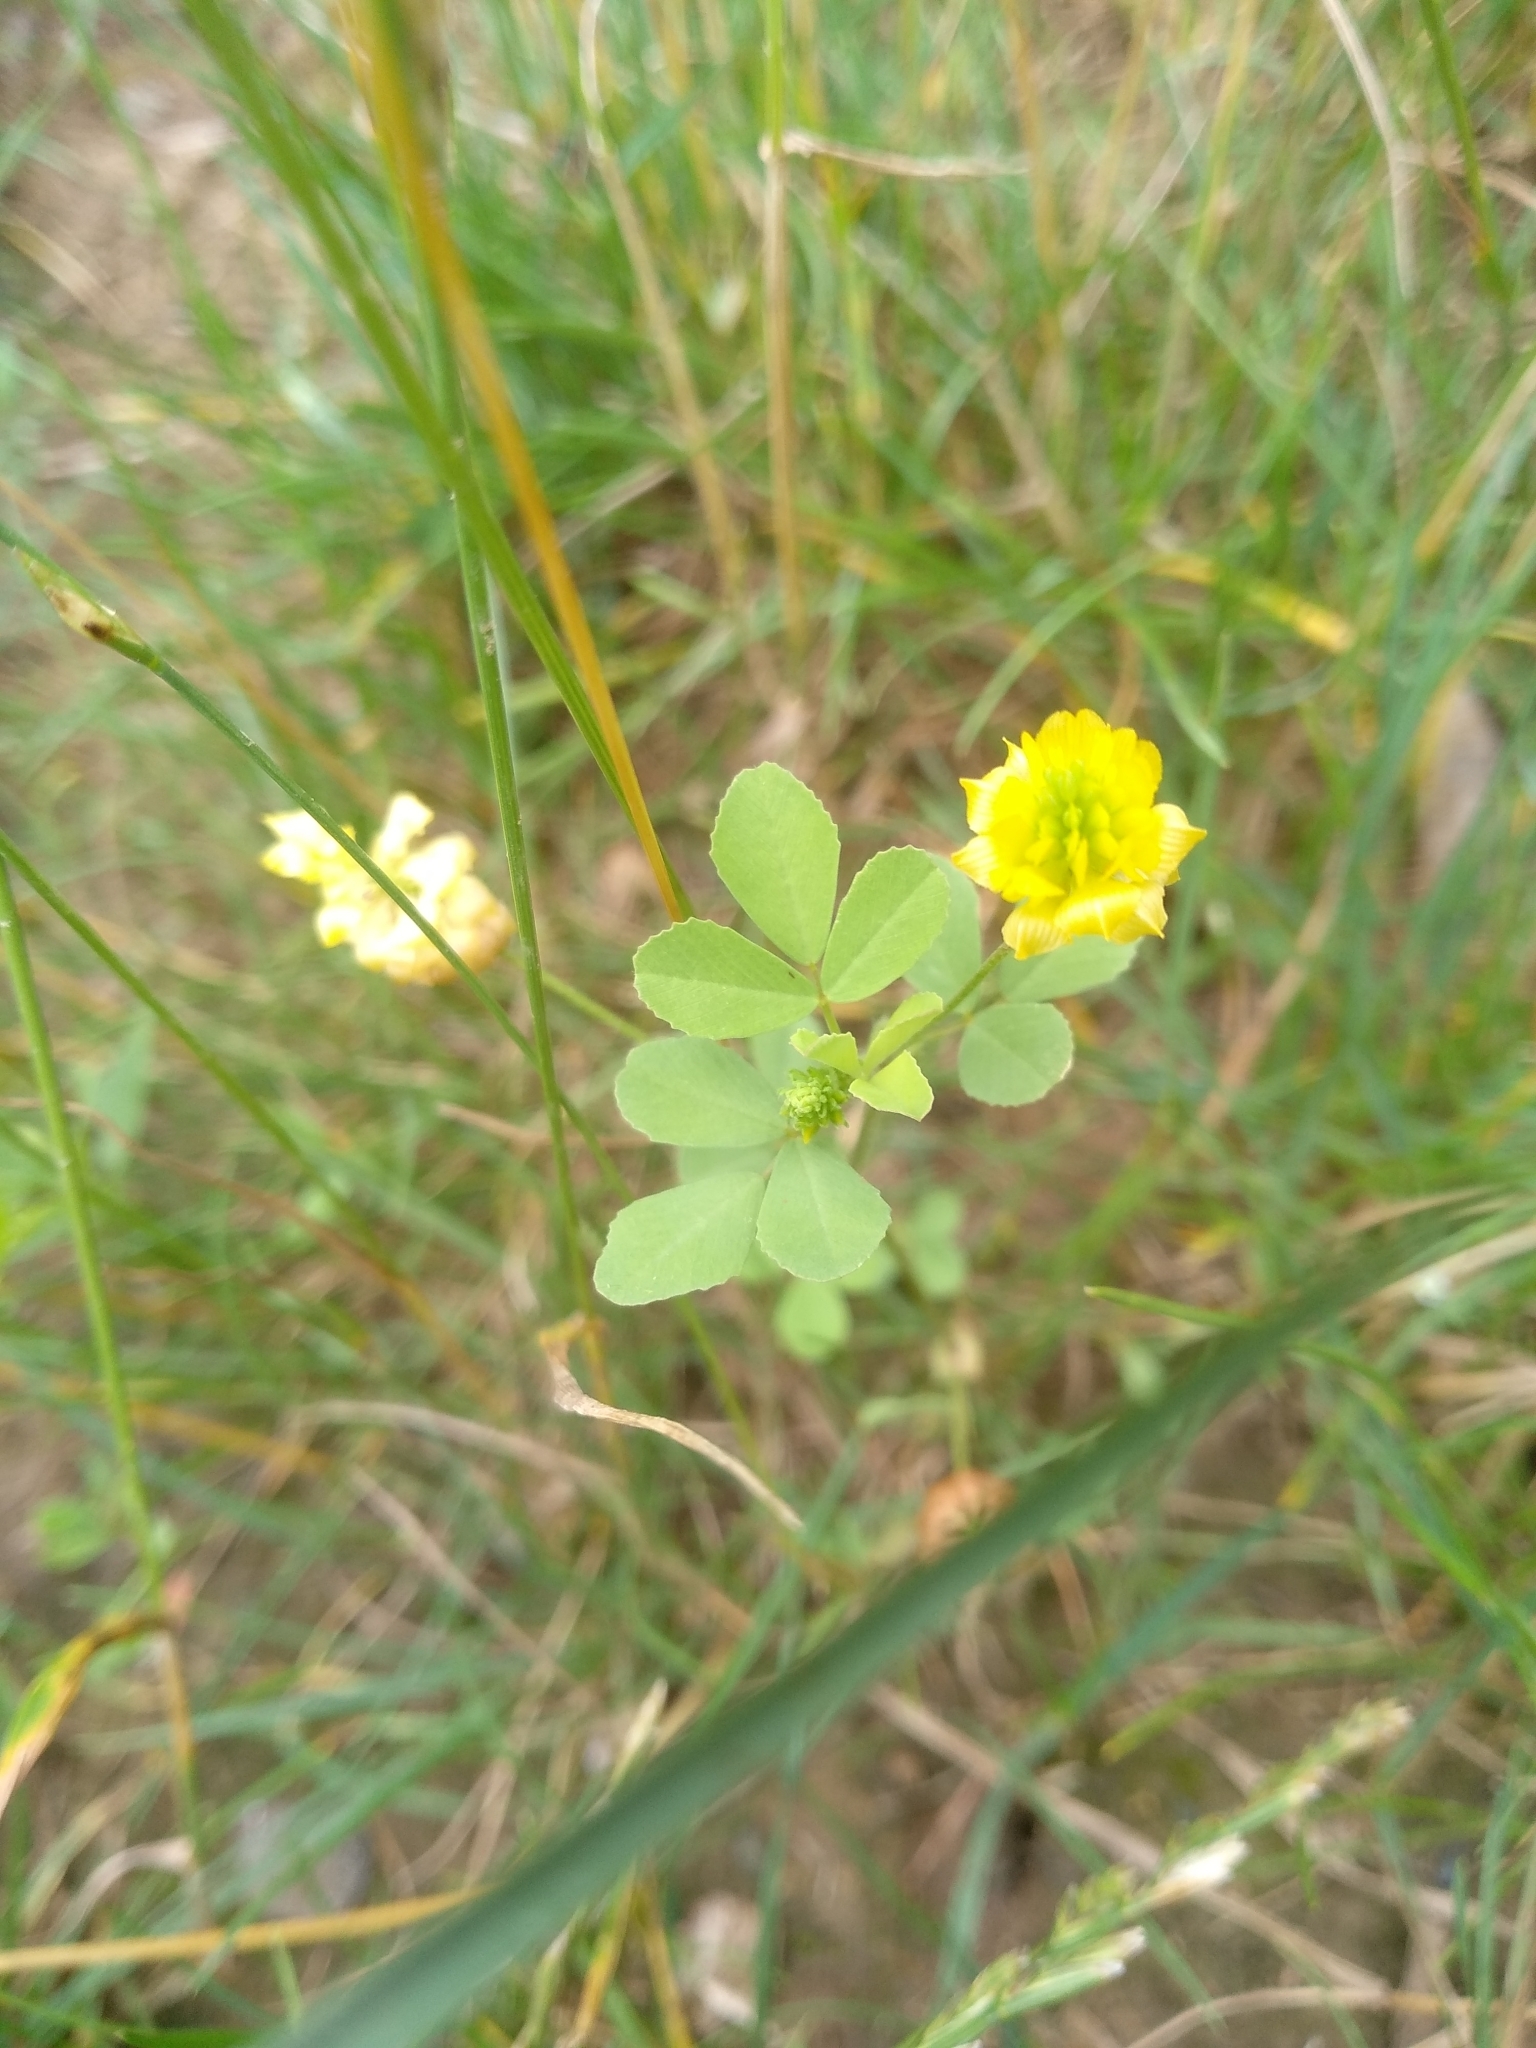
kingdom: Plantae
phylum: Tracheophyta
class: Magnoliopsida
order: Fabales
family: Fabaceae
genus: Trifolium
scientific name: Trifolium campestre
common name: Field clover
